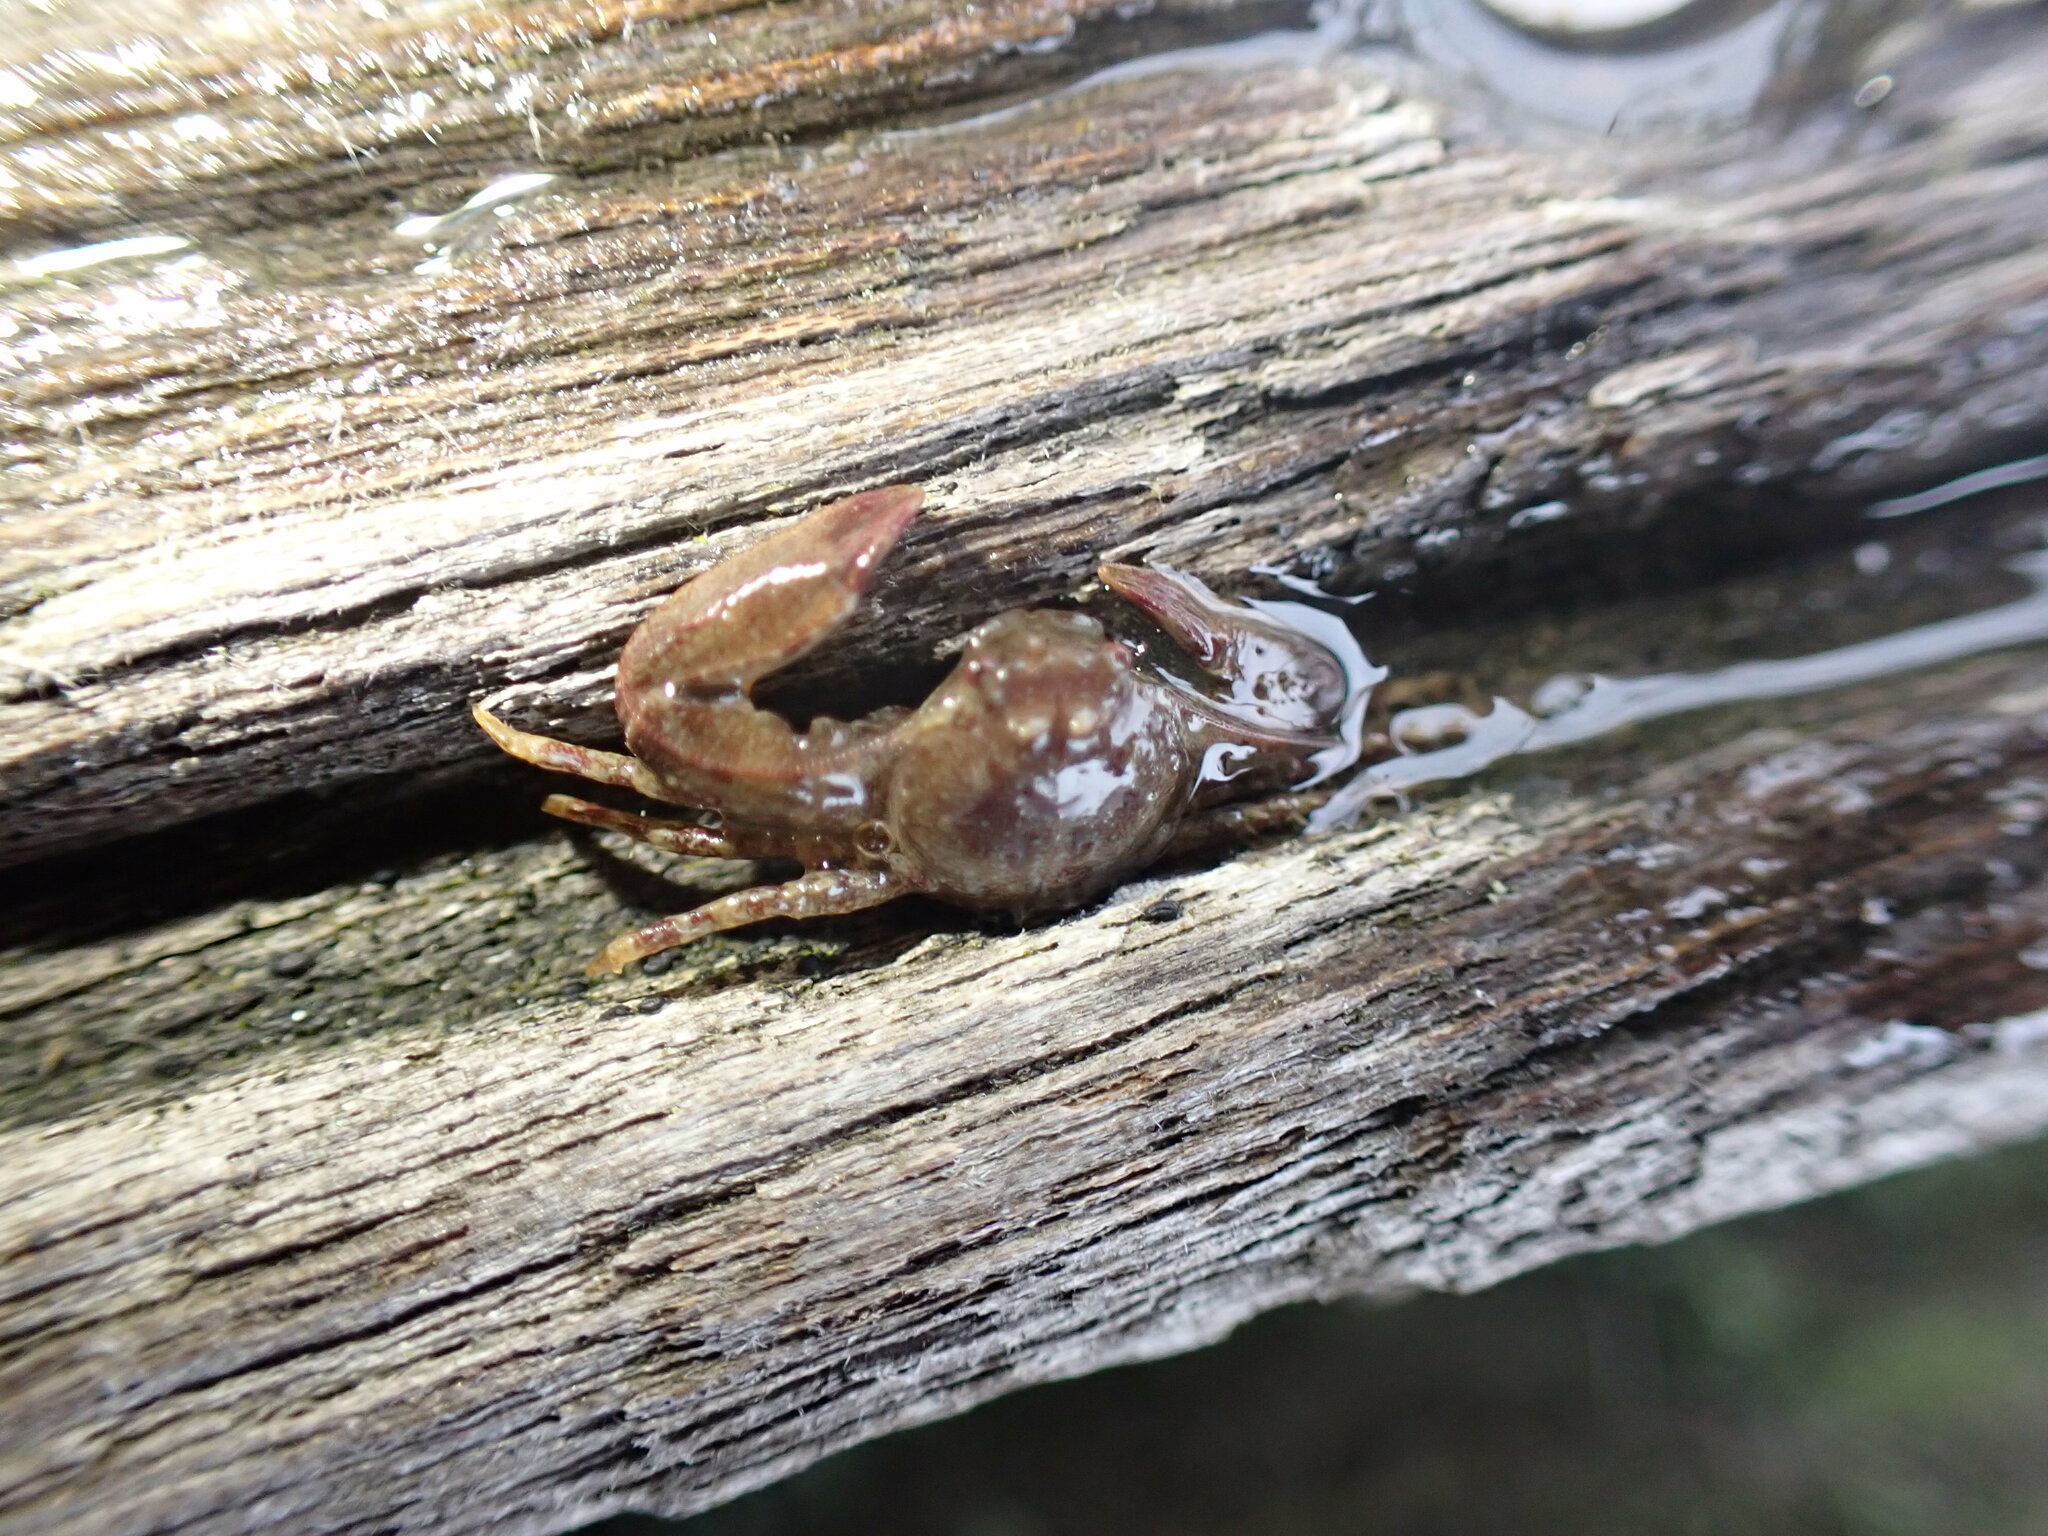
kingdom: Animalia
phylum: Arthropoda
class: Malacostraca
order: Decapoda
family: Porcellanidae
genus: Pisidia
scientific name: Pisidia longicornis
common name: Long clawed porcelain crab
